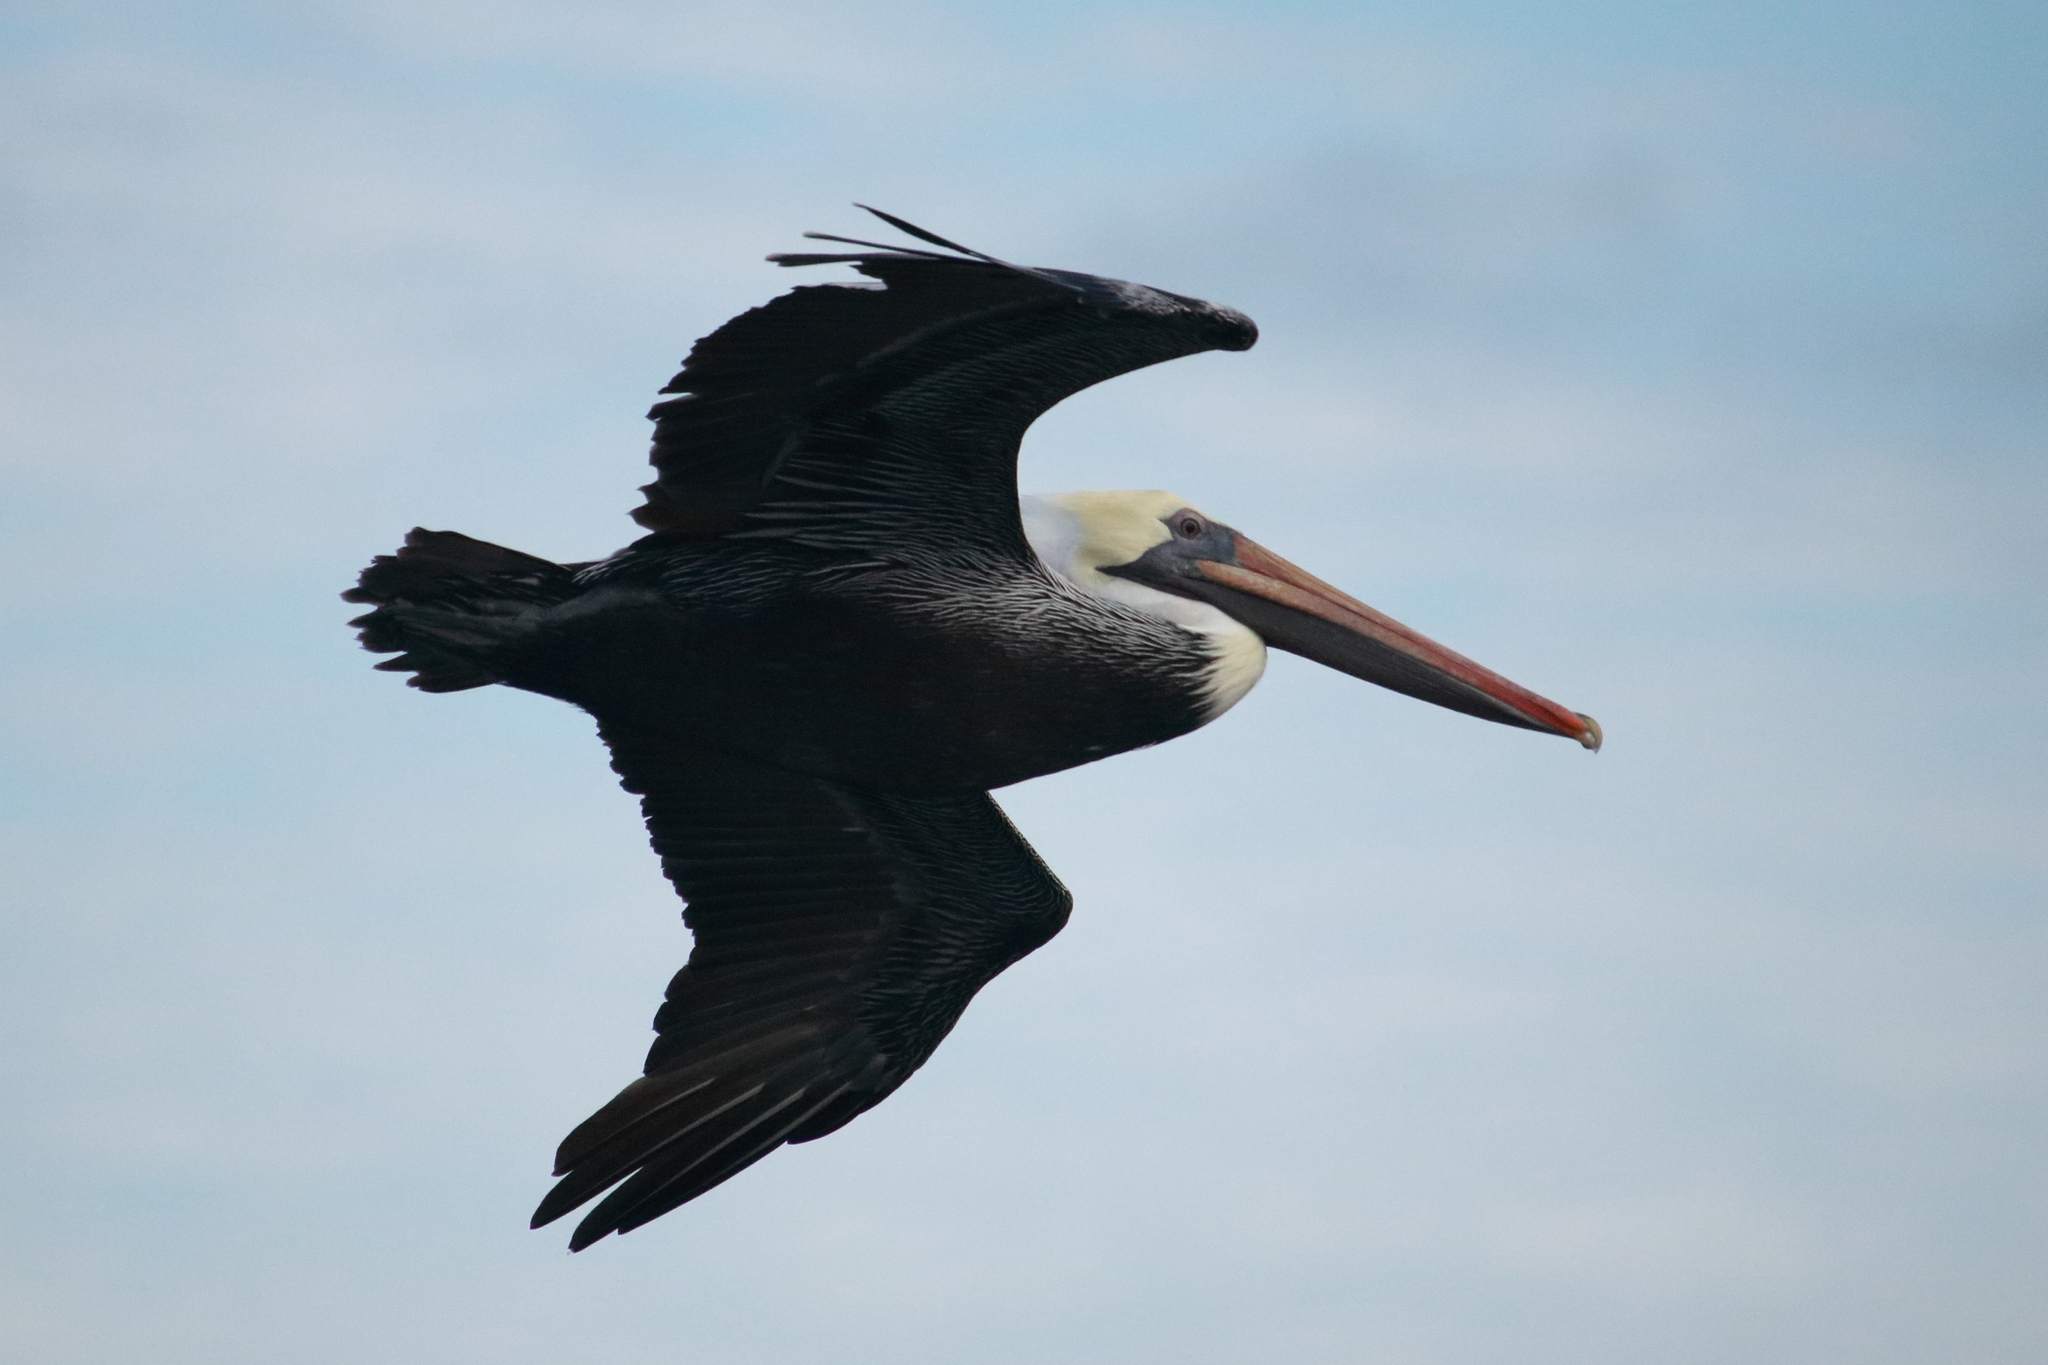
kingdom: Animalia
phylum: Chordata
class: Aves
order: Pelecaniformes
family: Pelecanidae
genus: Pelecanus
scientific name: Pelecanus occidentalis
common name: Brown pelican
